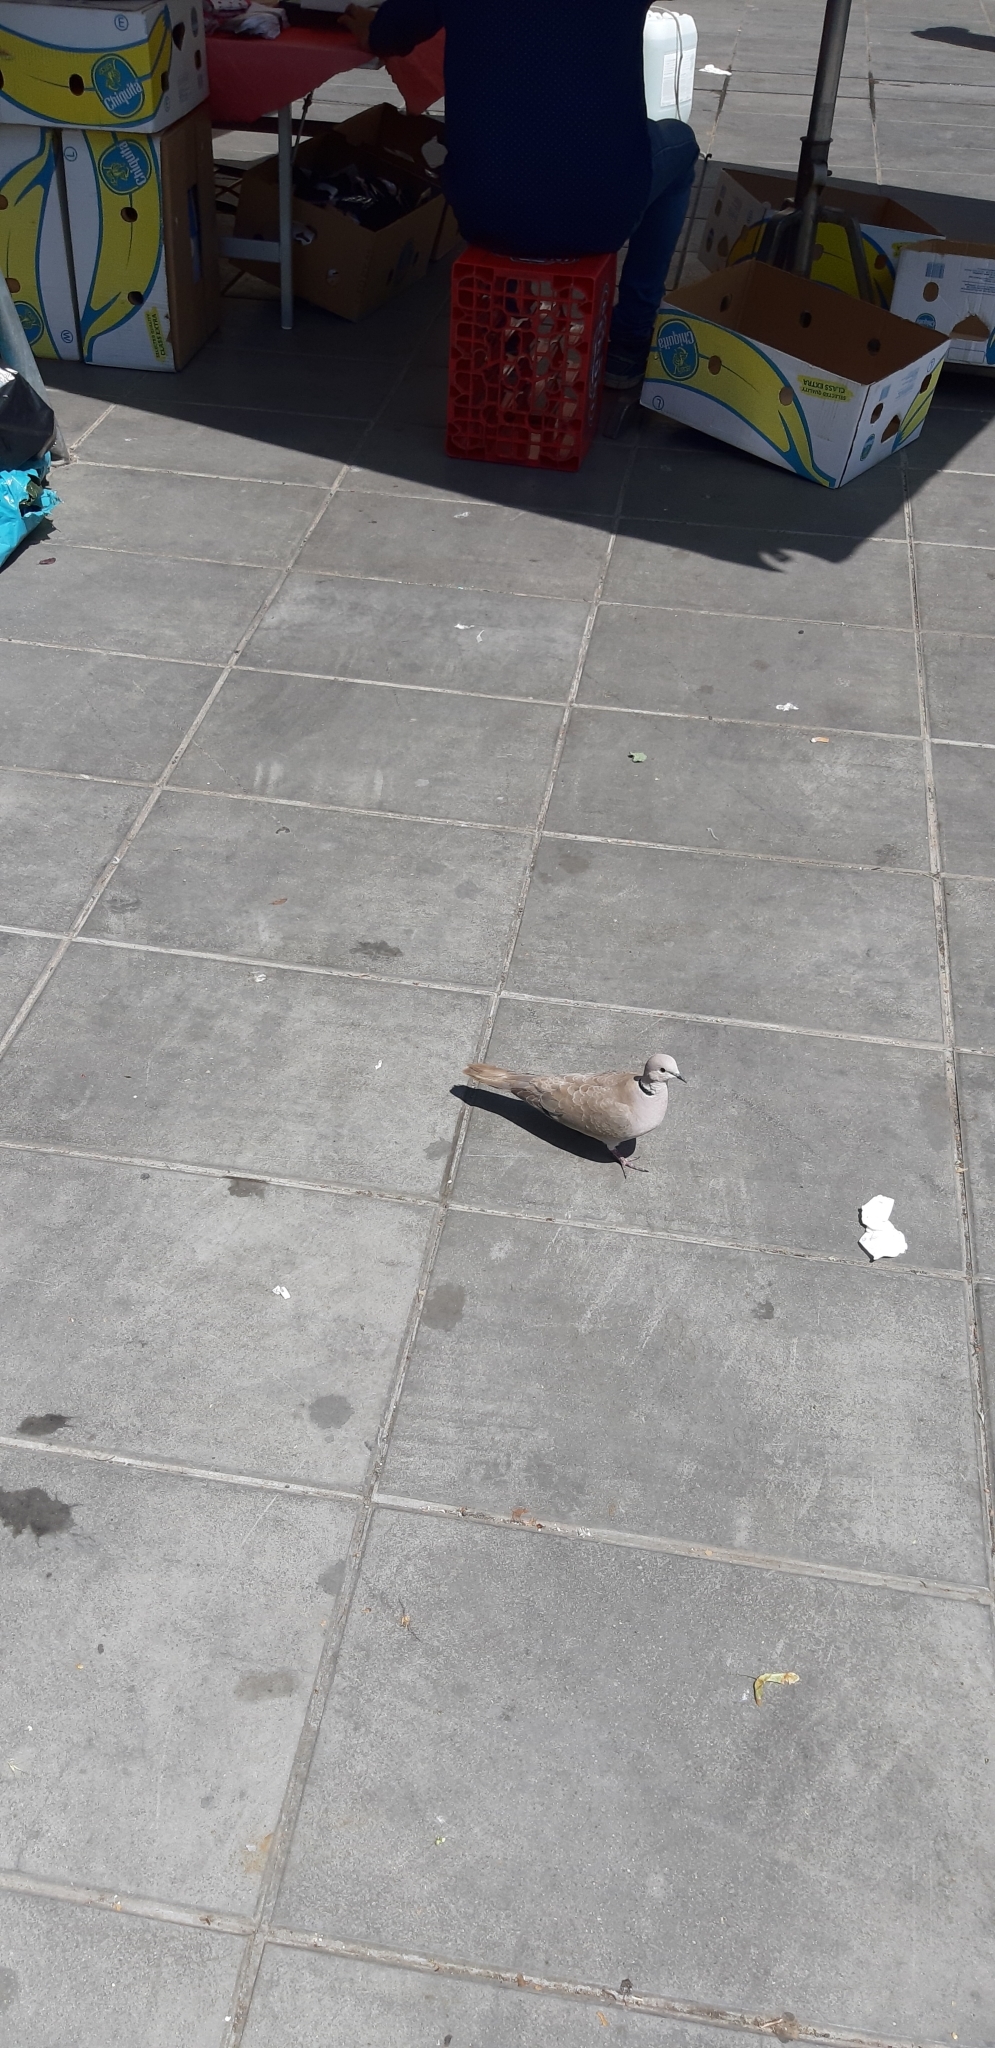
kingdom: Animalia
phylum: Chordata
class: Aves
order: Columbiformes
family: Columbidae
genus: Streptopelia
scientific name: Streptopelia decaocto
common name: Eurasian collared dove
